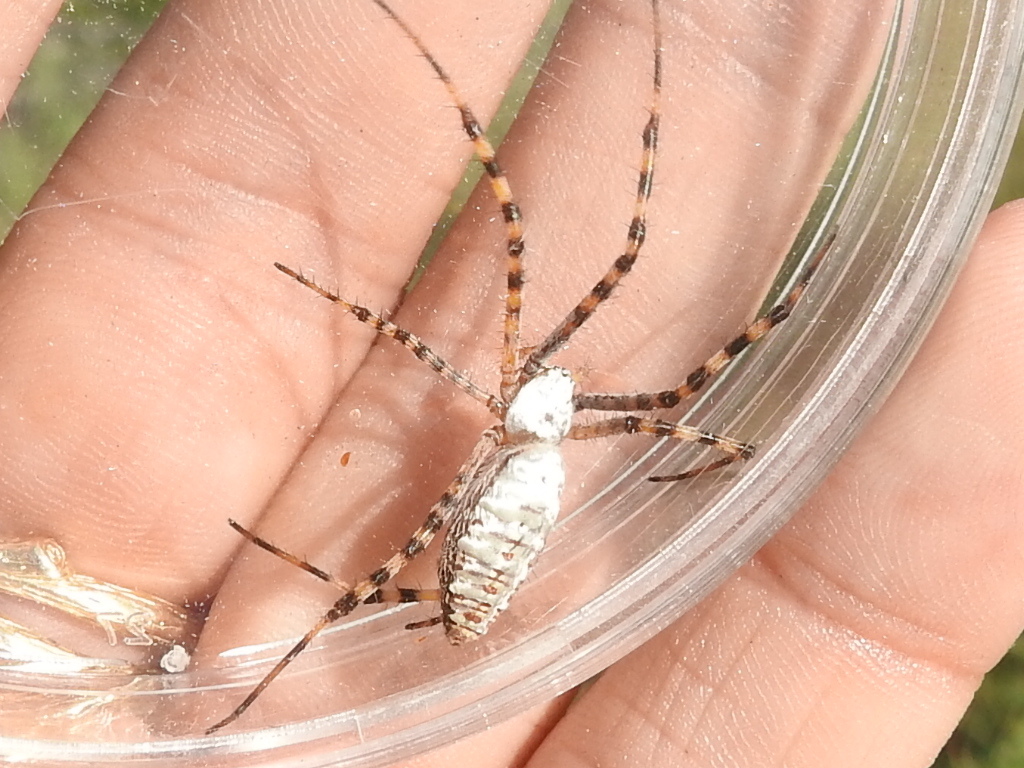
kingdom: Animalia
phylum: Arthropoda
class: Arachnida
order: Araneae
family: Araneidae
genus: Argiope
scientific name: Argiope trifasciata
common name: Banded garden spider
